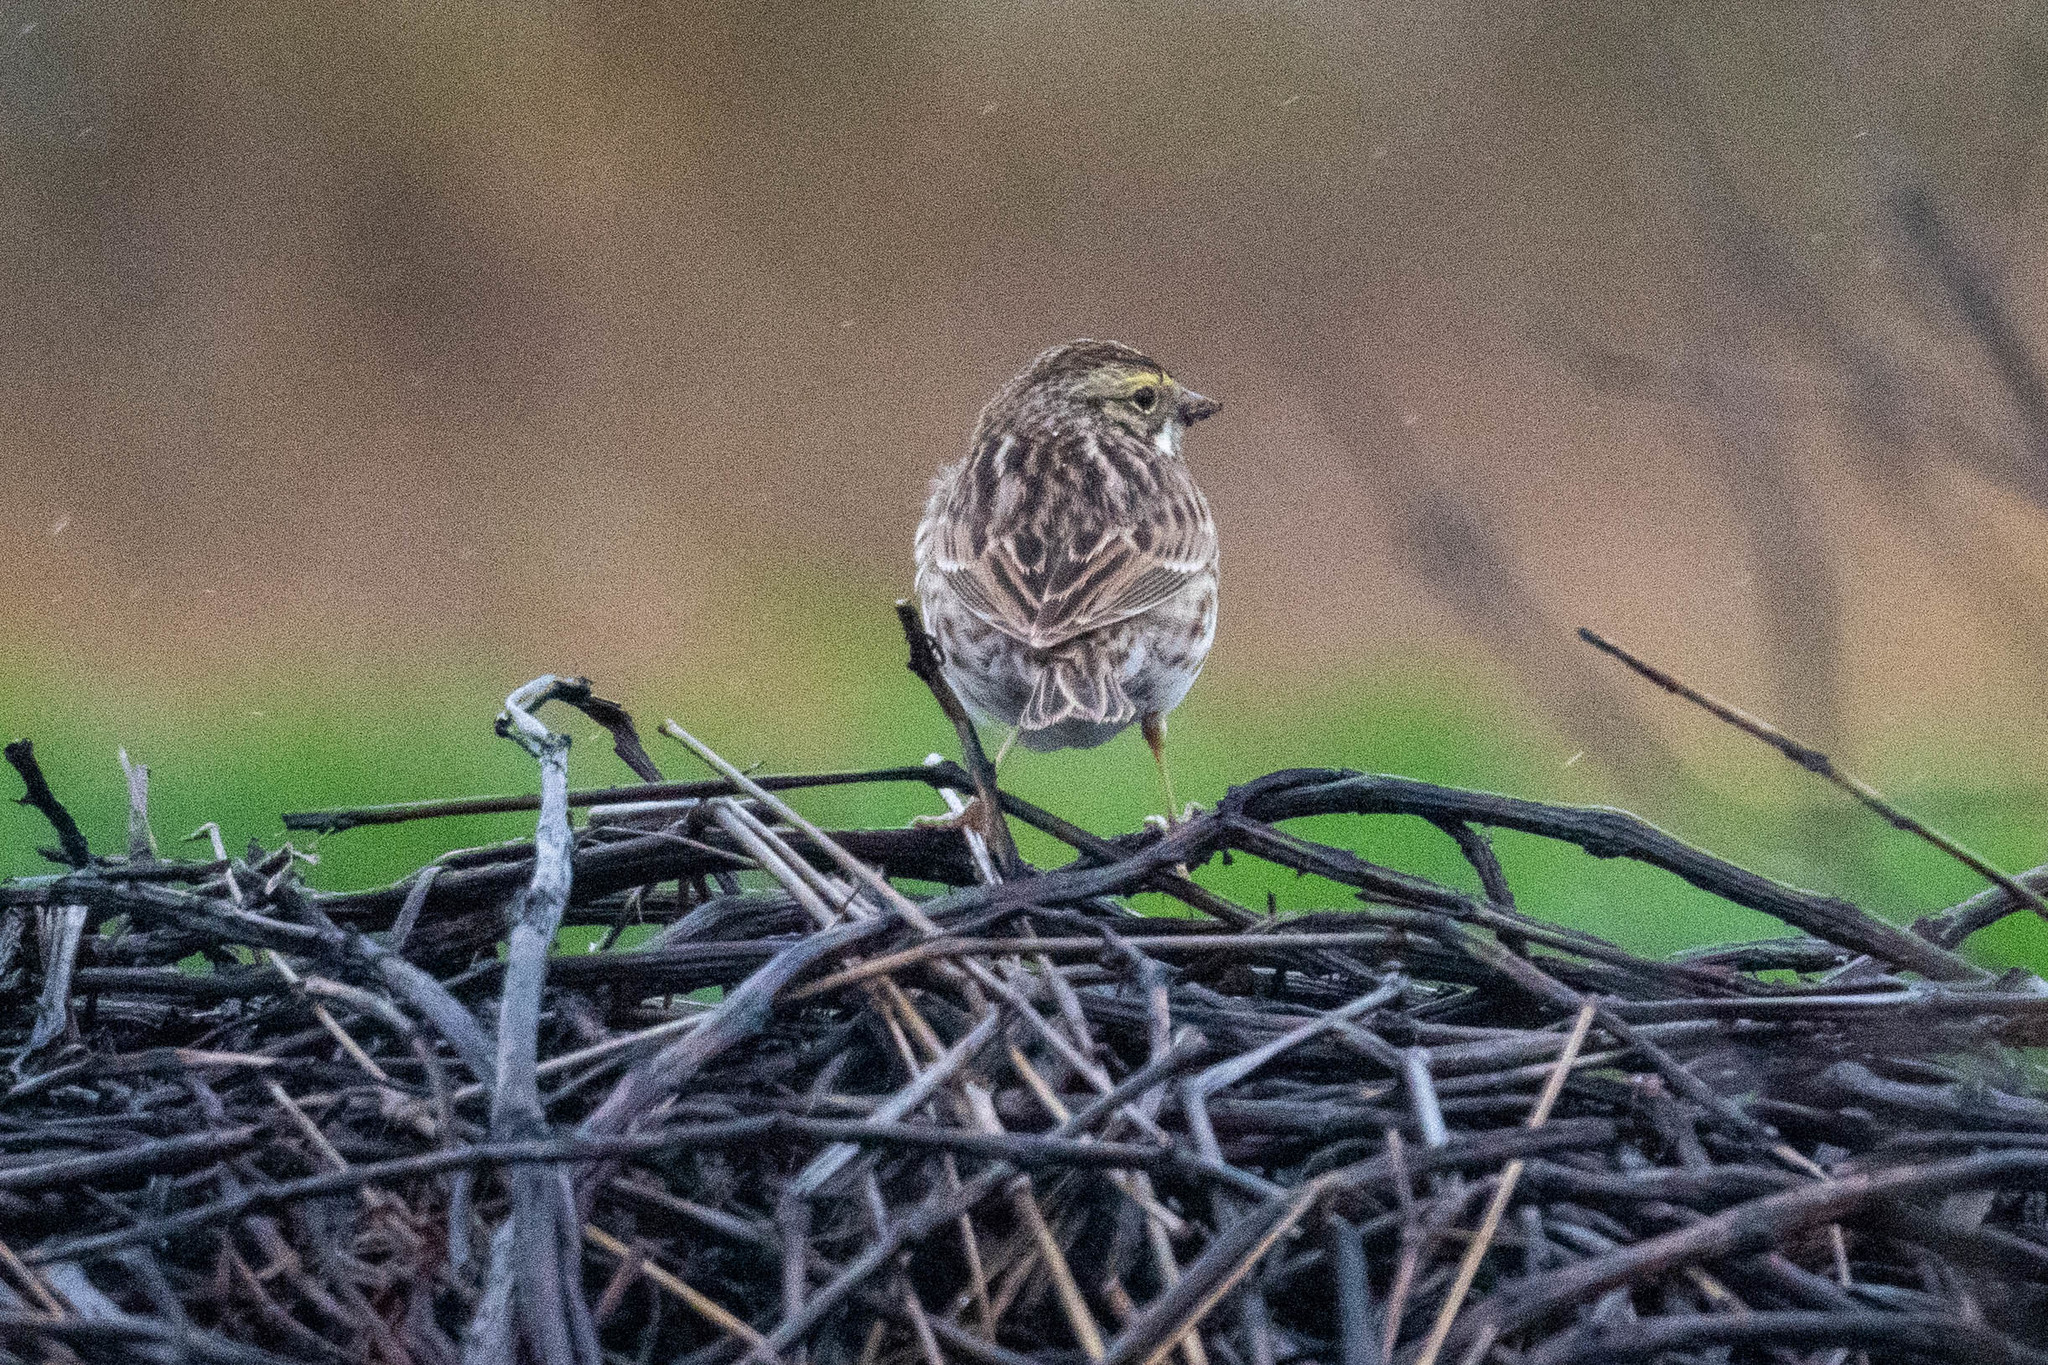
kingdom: Animalia
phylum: Chordata
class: Aves
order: Passeriformes
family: Passerellidae
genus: Passerculus
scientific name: Passerculus sandwichensis
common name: Savannah sparrow
